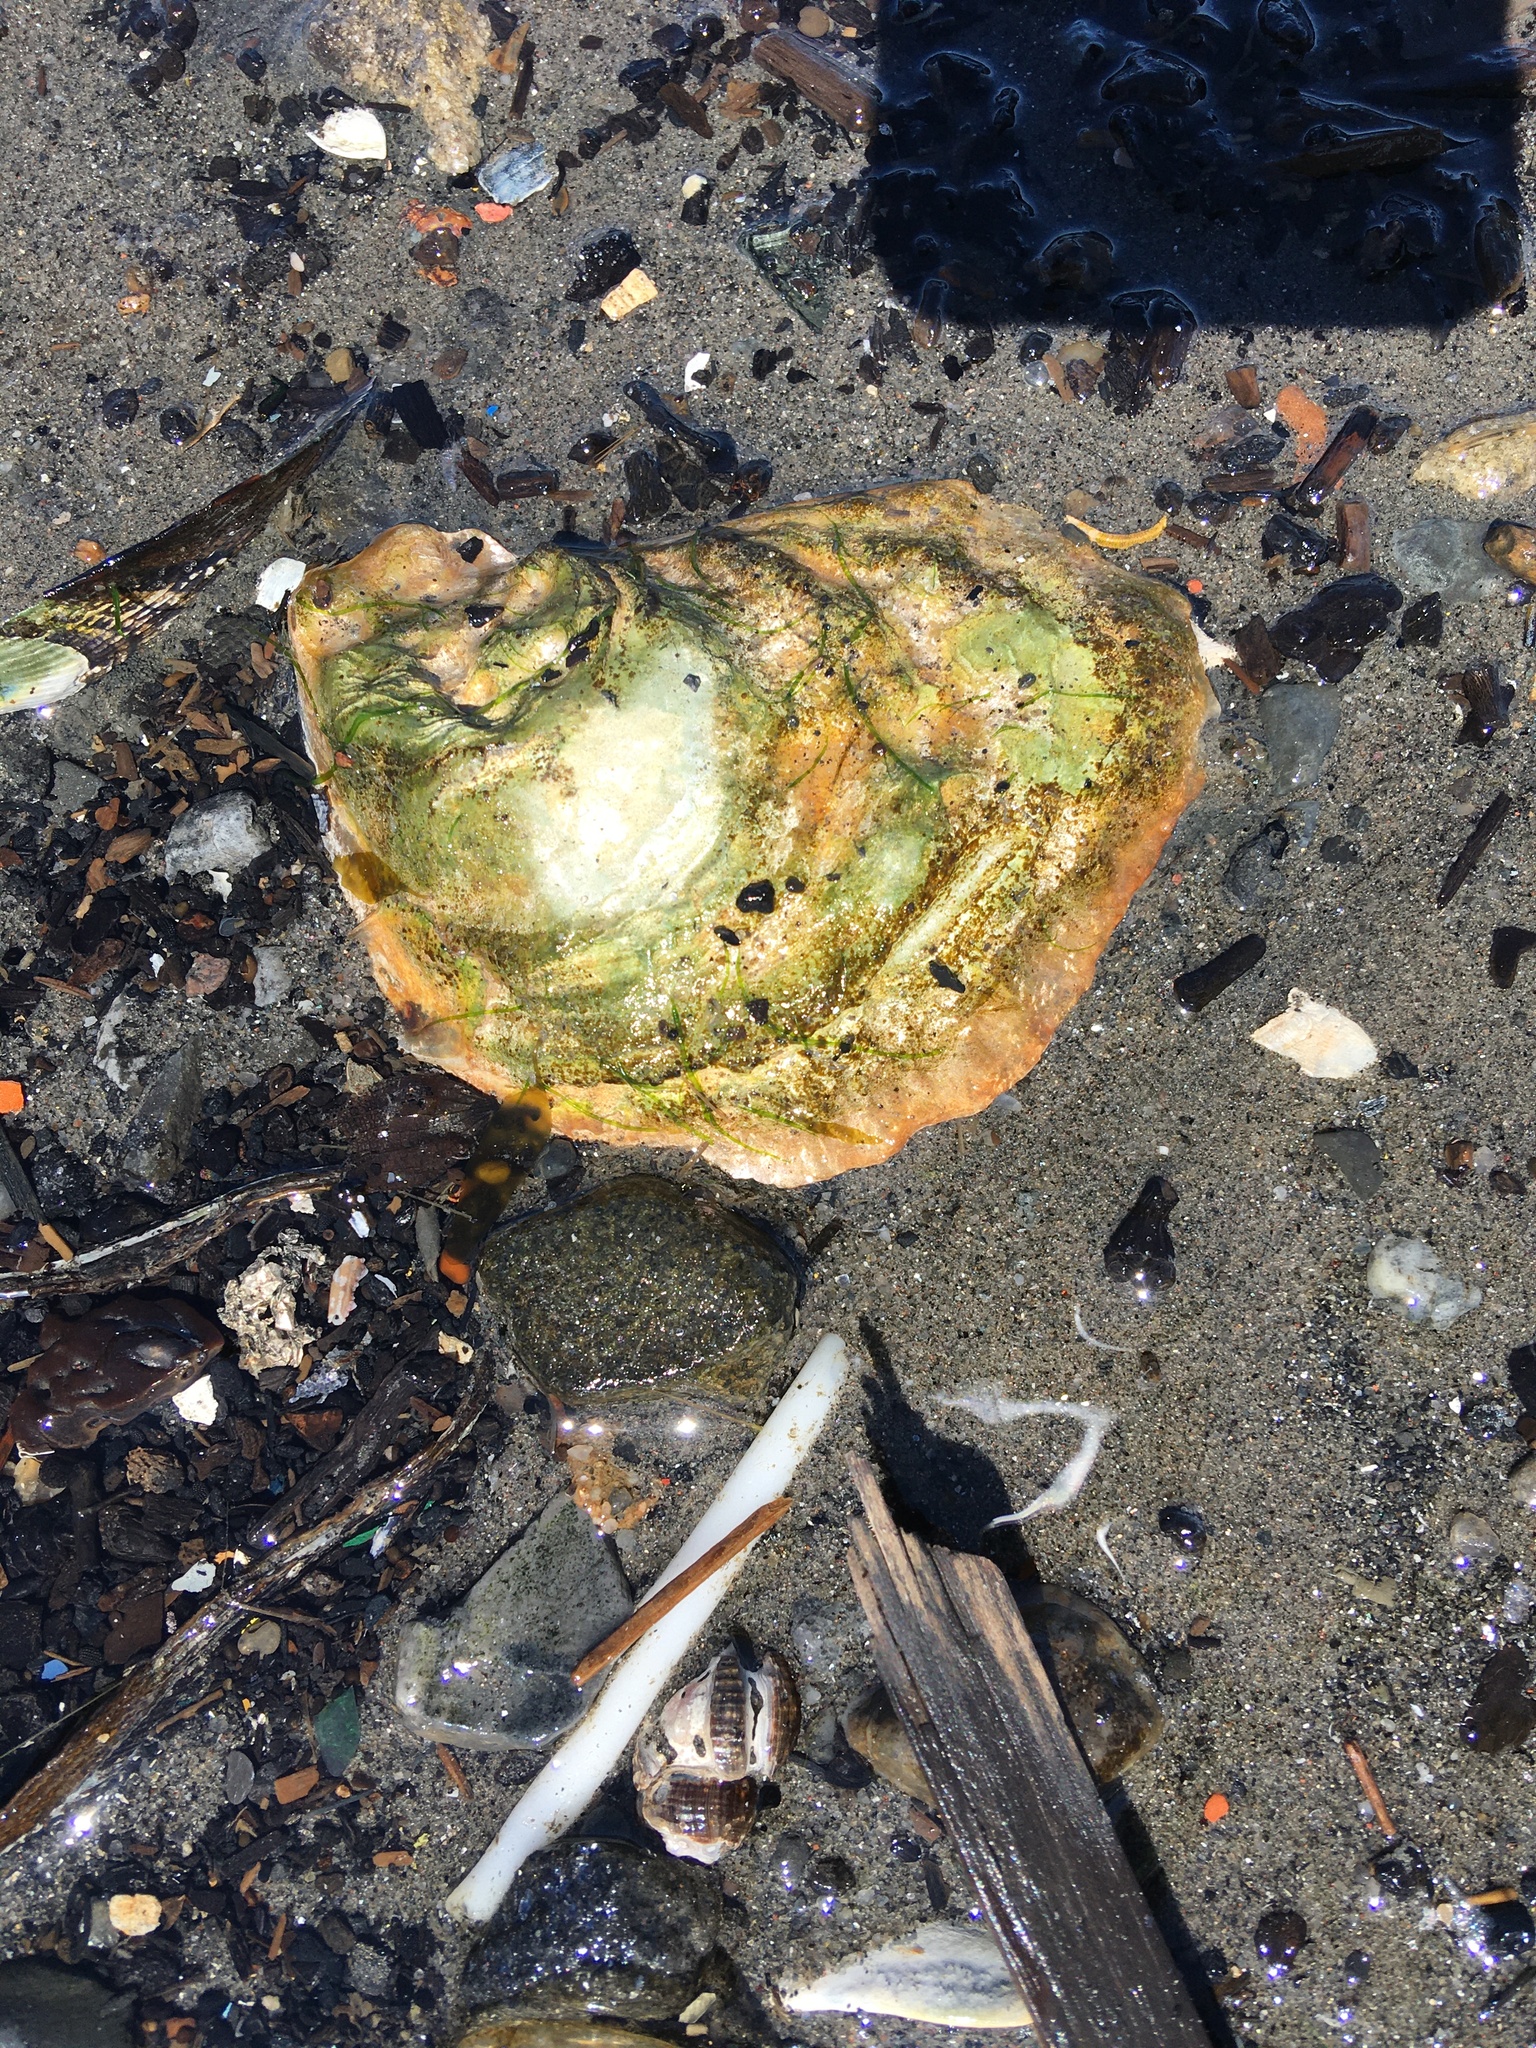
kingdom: Animalia
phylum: Mollusca
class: Bivalvia
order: Ostreida
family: Ostreidae
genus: Crassostrea
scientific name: Crassostrea virginica
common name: American oyster
